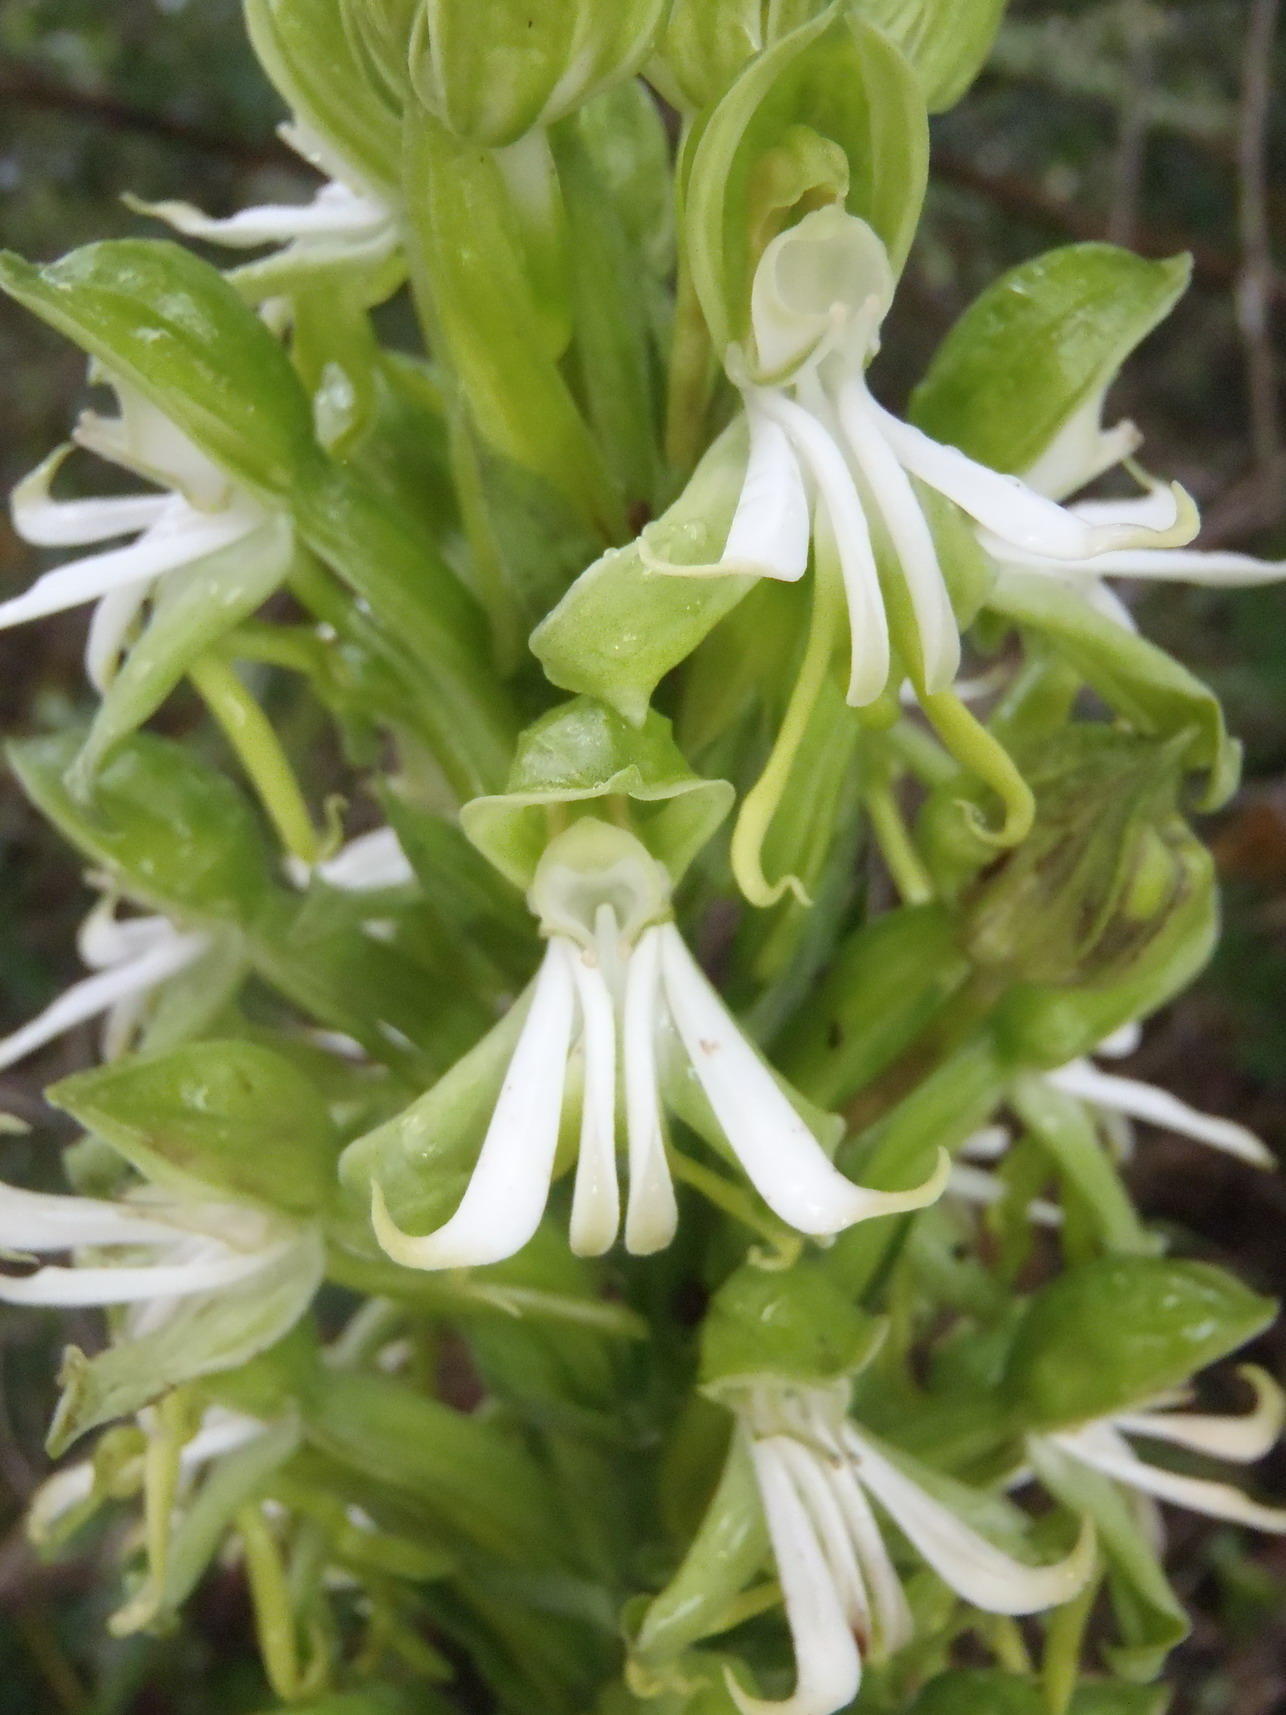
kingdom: Plantae
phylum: Tracheophyta
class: Liliopsida
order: Asparagales
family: Orchidaceae
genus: Bonatea
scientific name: Bonatea speciosa
